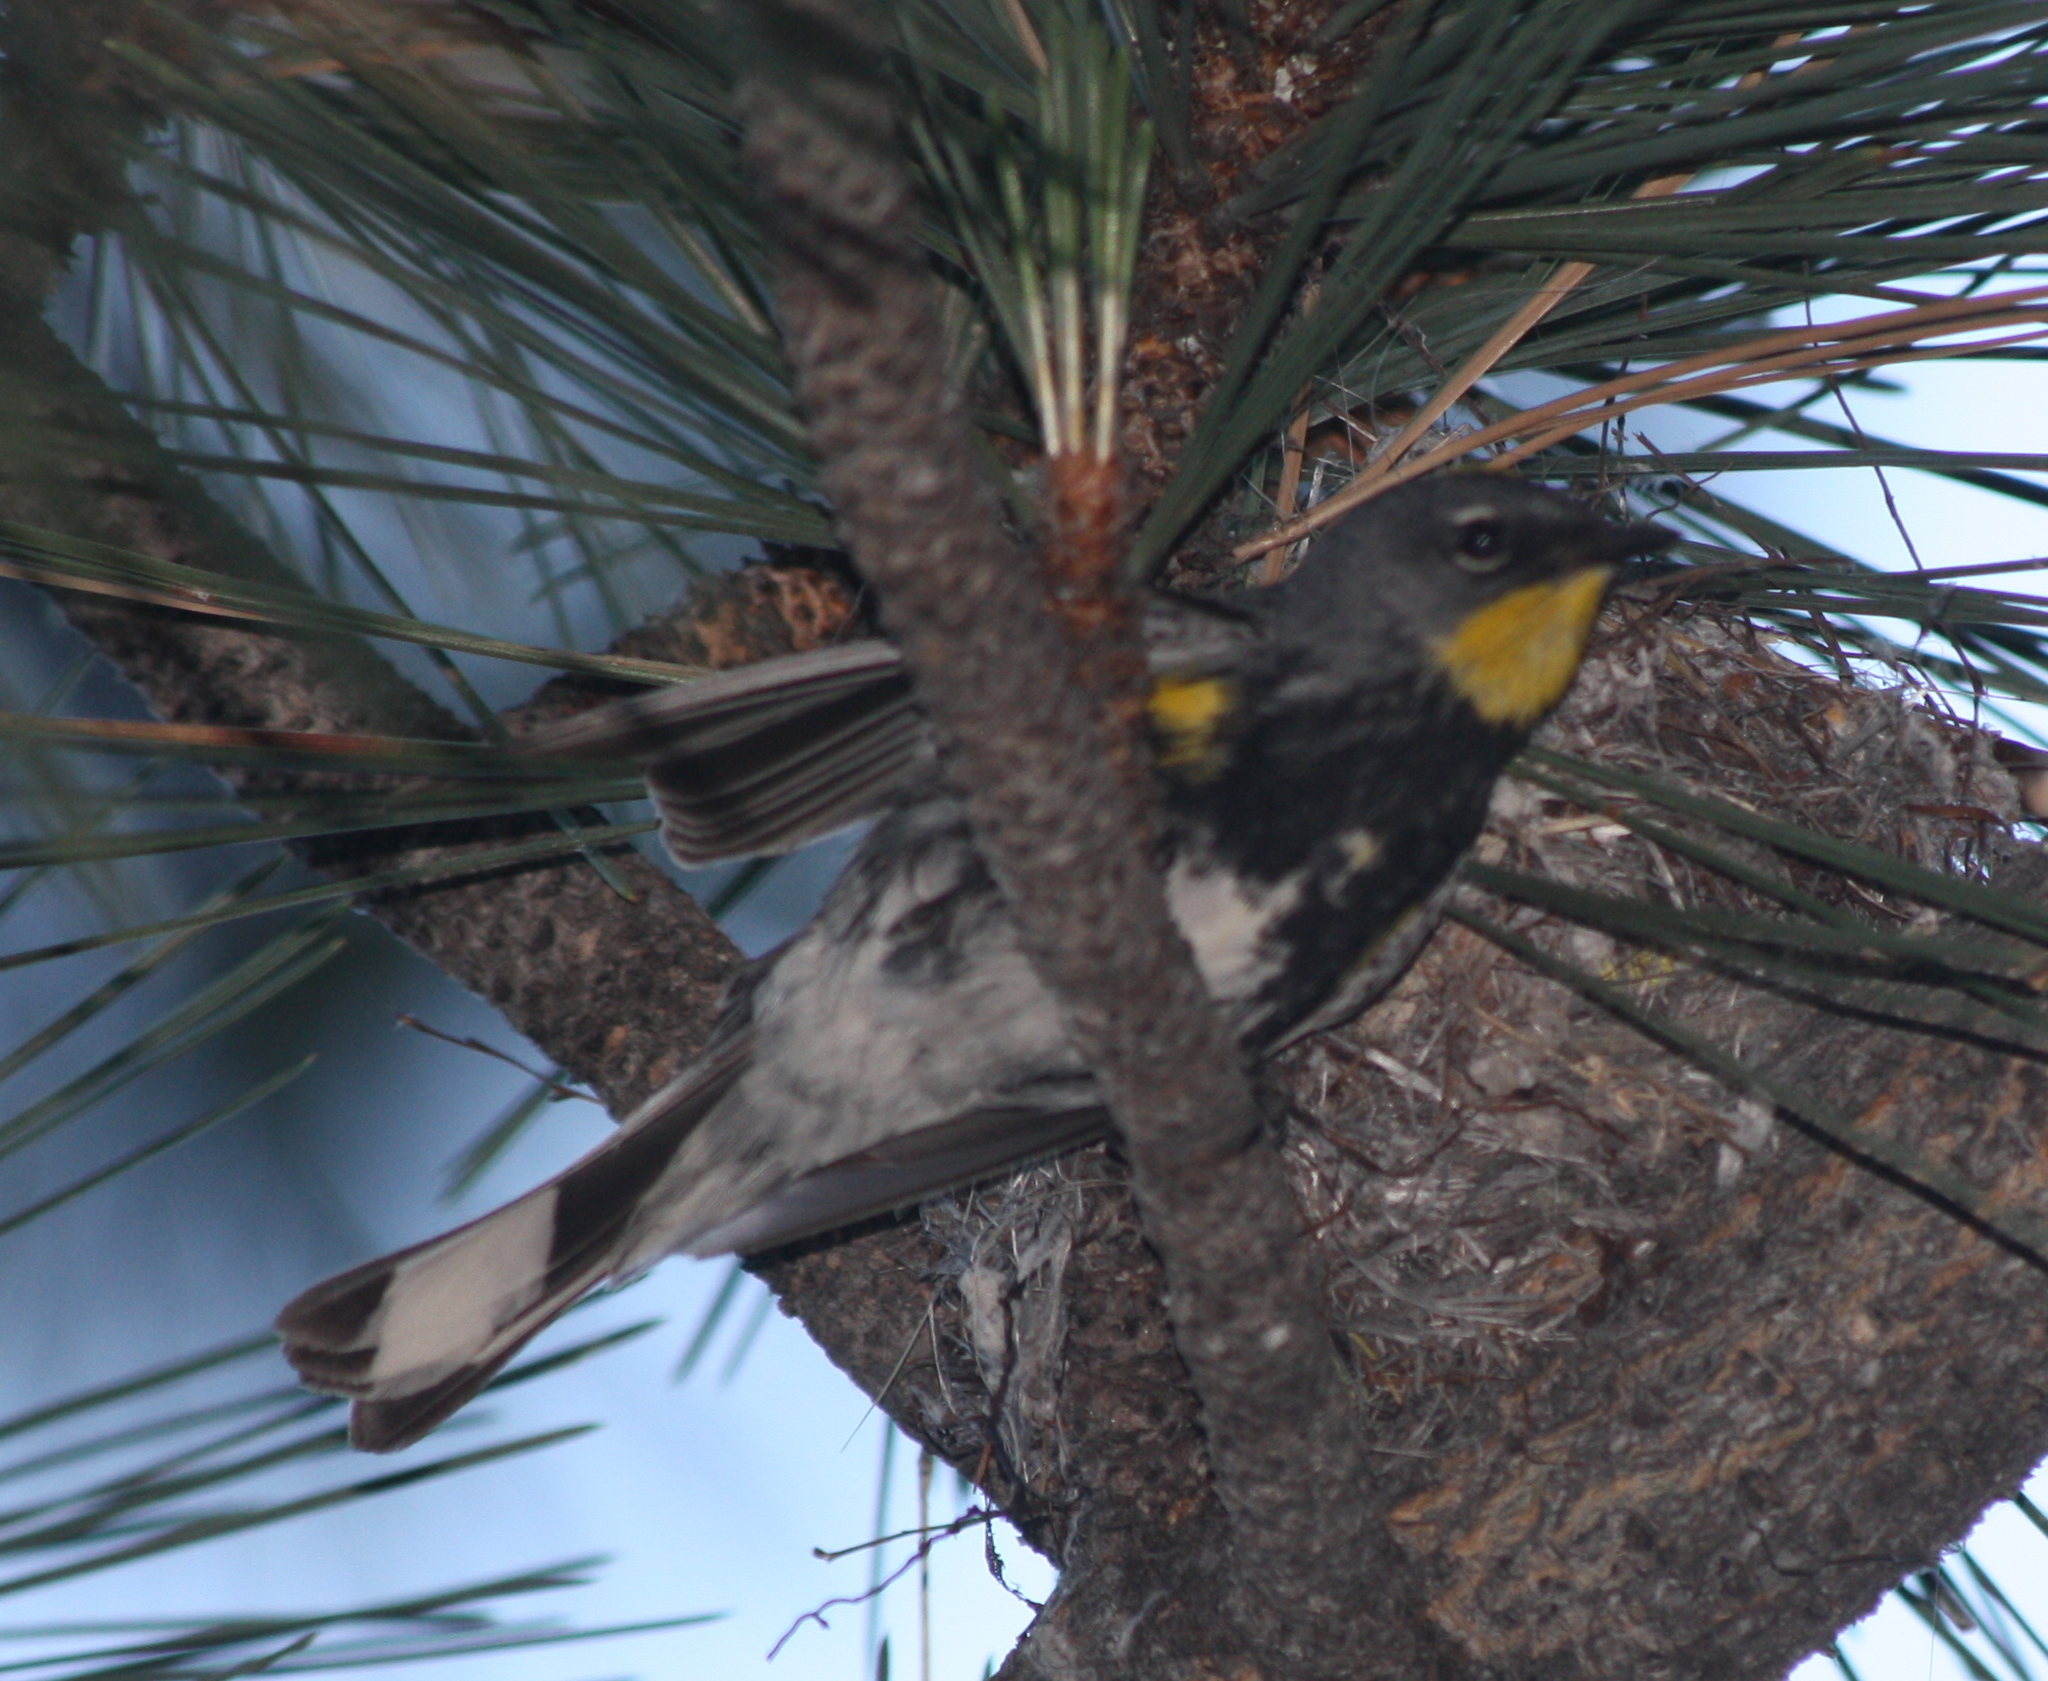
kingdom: Animalia
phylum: Chordata
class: Aves
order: Passeriformes
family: Parulidae
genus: Setophaga
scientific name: Setophaga coronata
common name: Myrtle warbler
